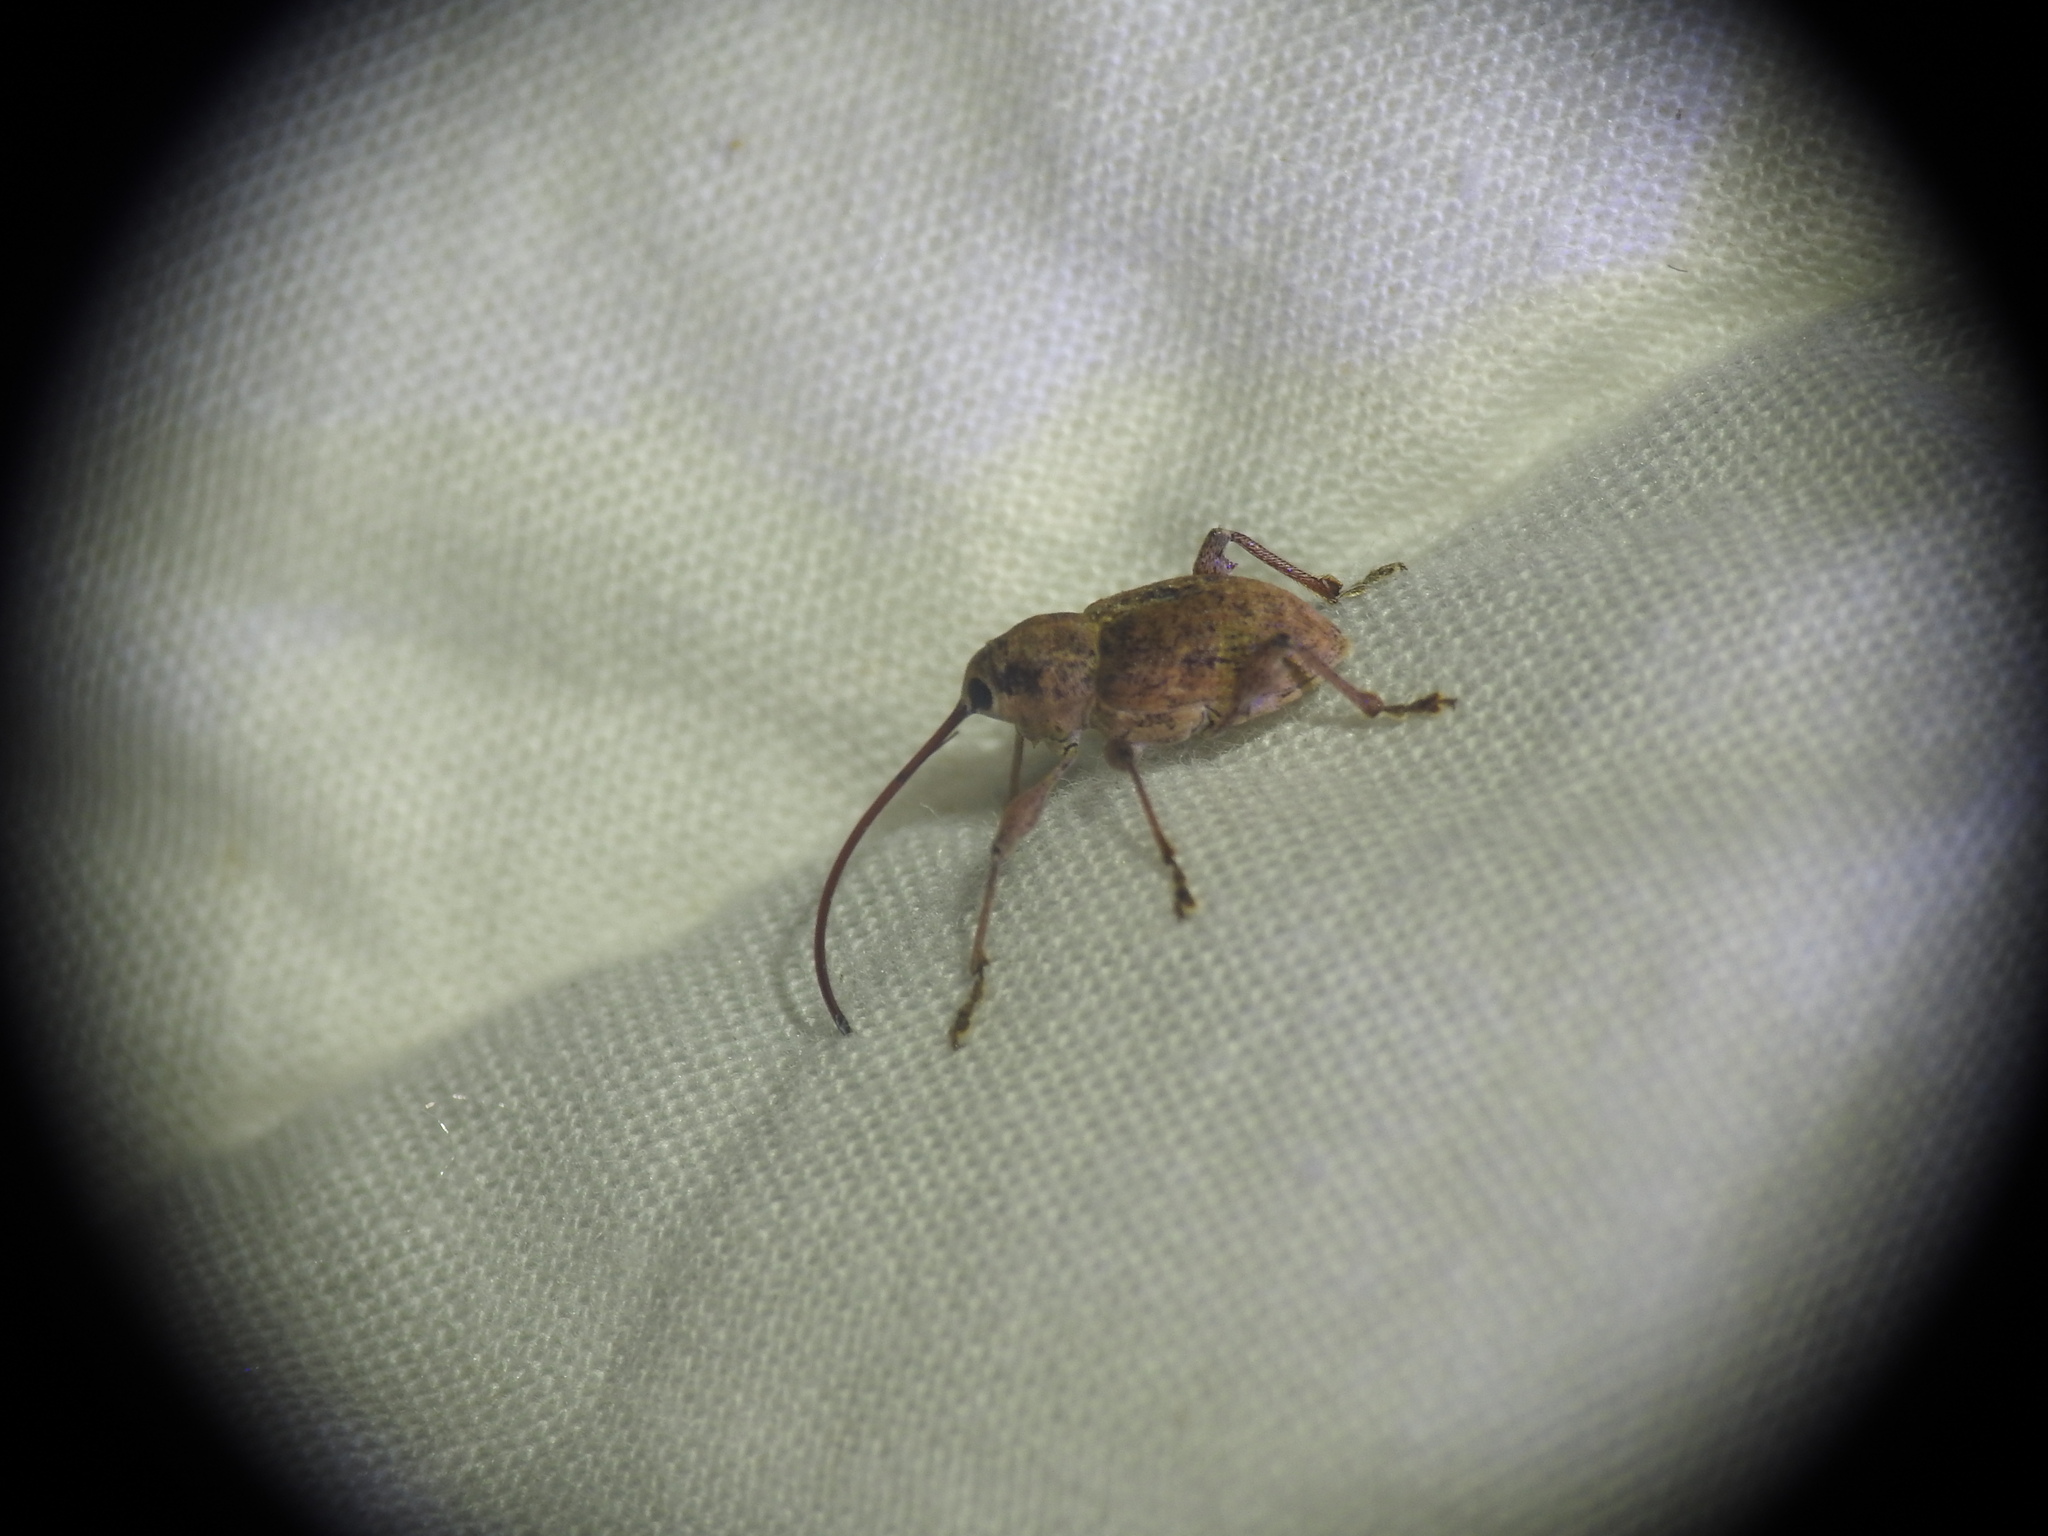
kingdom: Animalia
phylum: Arthropoda
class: Insecta
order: Coleoptera
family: Curculionidae
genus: Curculio
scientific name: Curculio elephas
